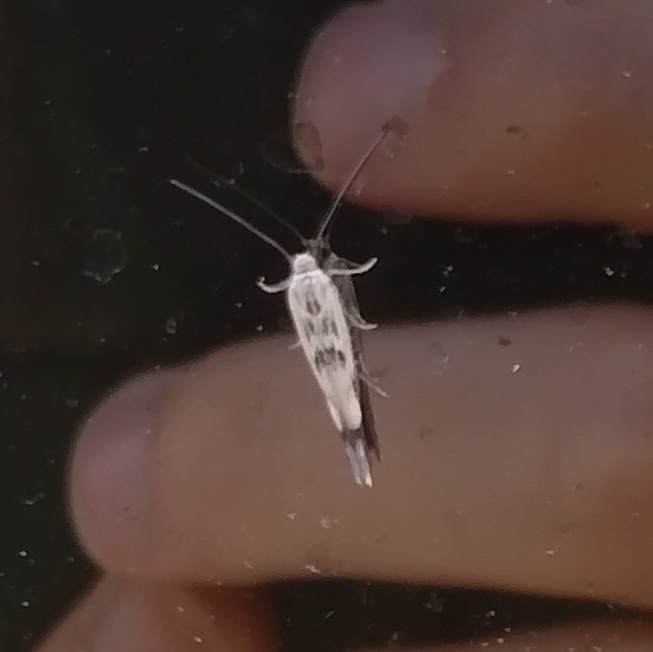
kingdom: Animalia
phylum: Arthropoda
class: Insecta
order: Lepidoptera
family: Scythrididae
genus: Scythris
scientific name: Scythris limbella
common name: Goosefoot owlet
